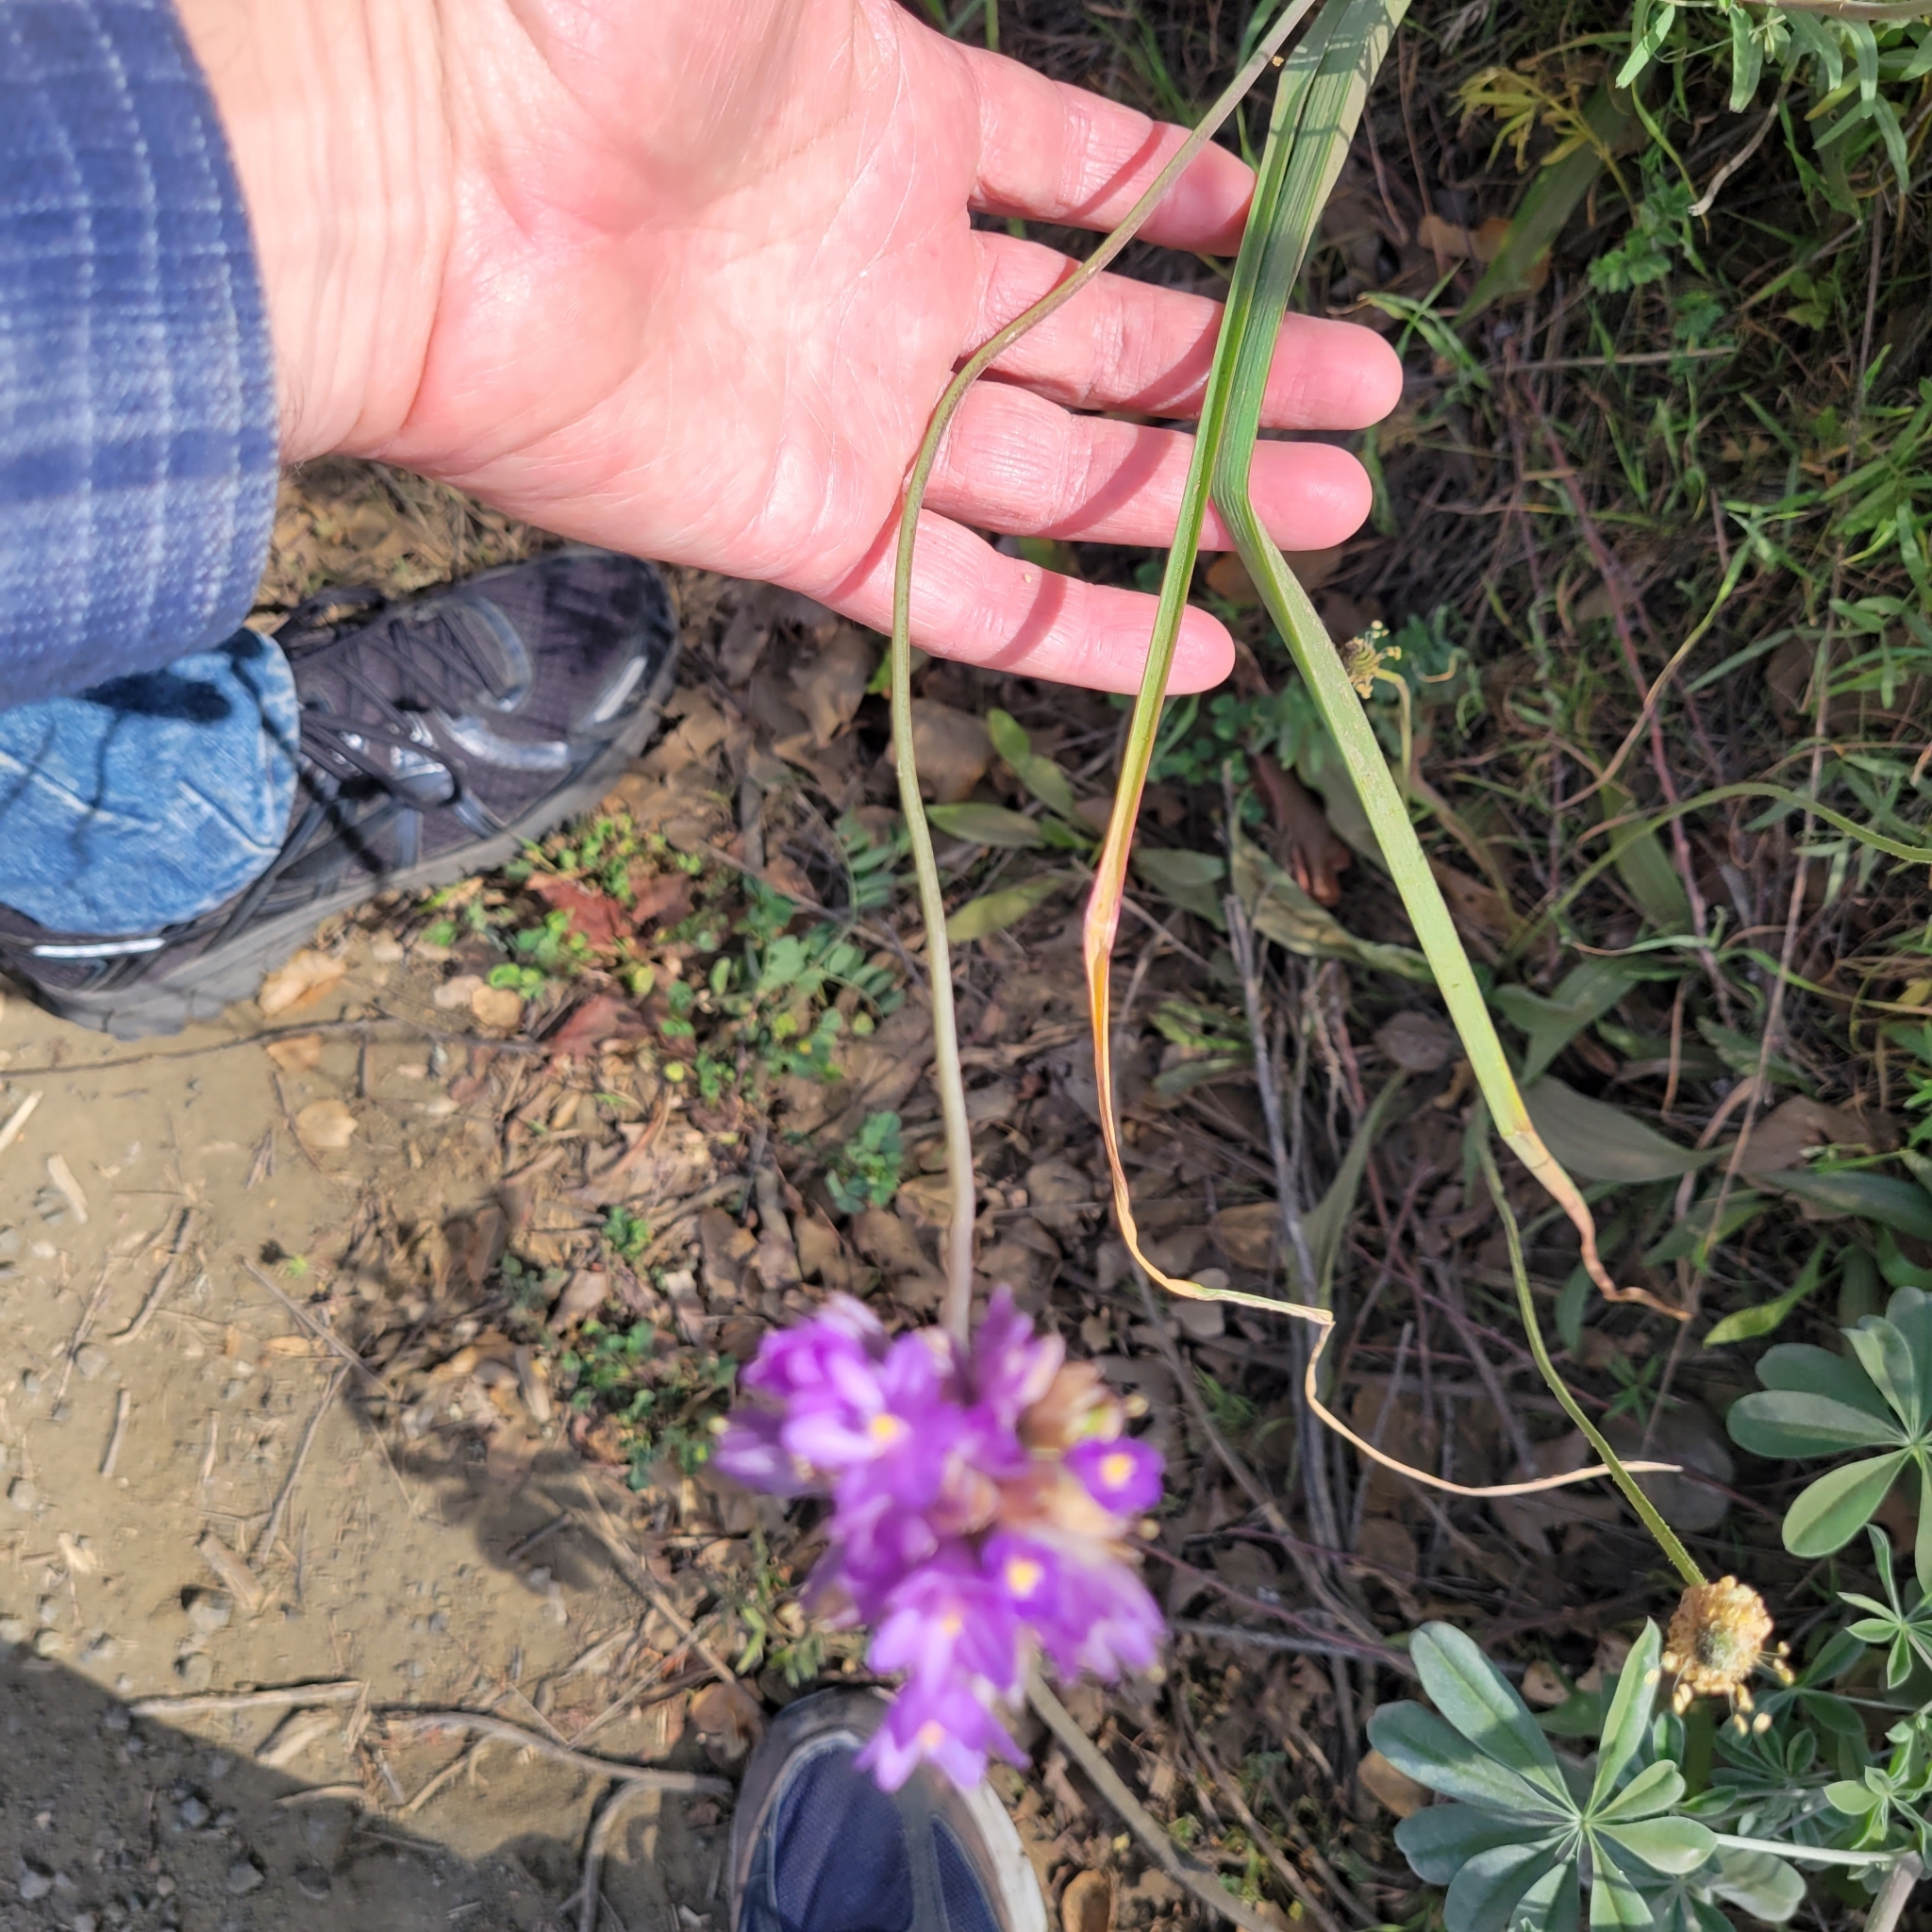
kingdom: Plantae
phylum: Tracheophyta
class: Liliopsida
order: Asparagales
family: Asparagaceae
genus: Dipterostemon
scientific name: Dipterostemon capitatus
